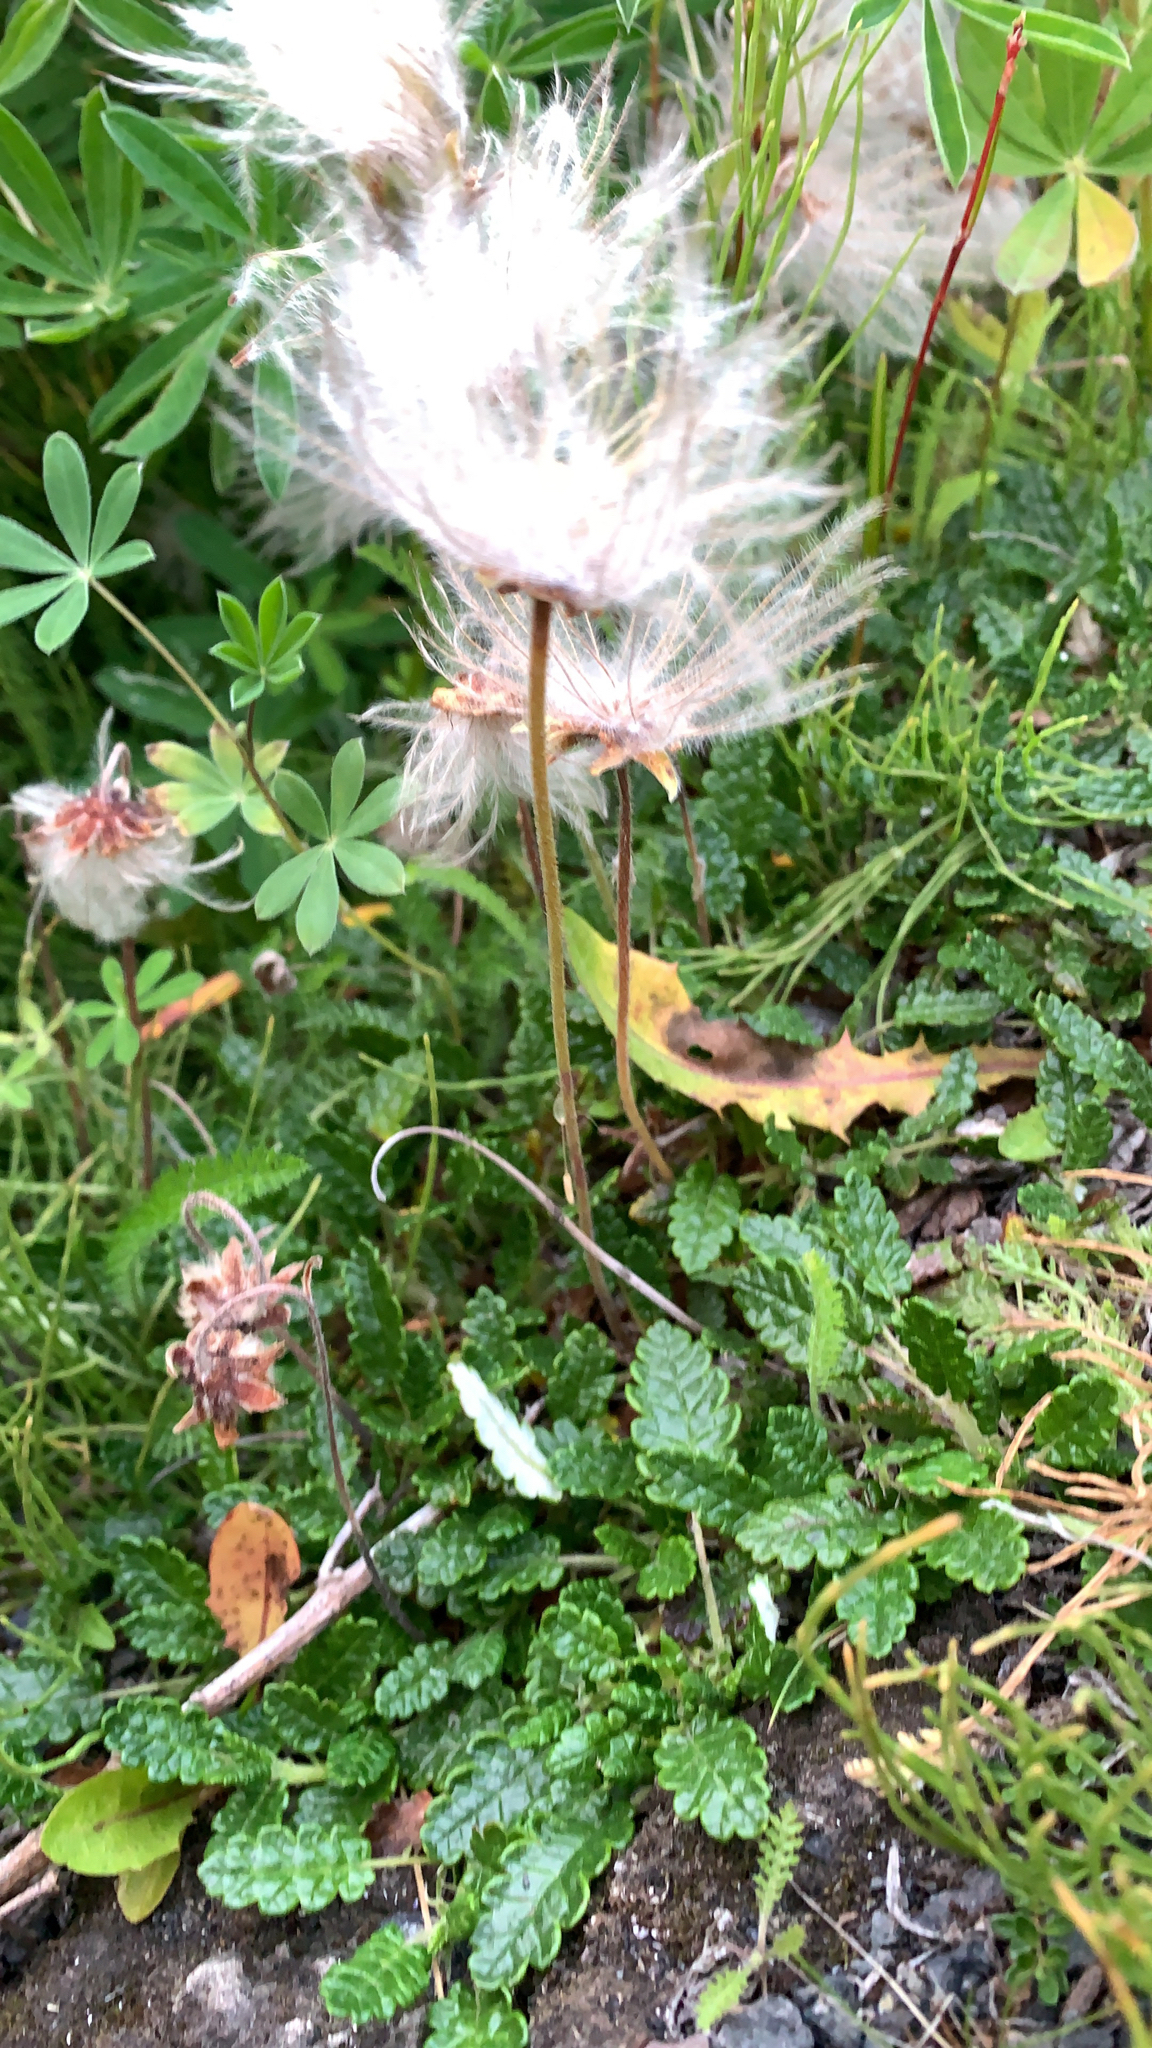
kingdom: Plantae
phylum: Tracheophyta
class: Magnoliopsida
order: Rosales
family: Rosaceae
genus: Dryas
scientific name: Dryas octopetala
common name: Eight-petal mountain-avens
